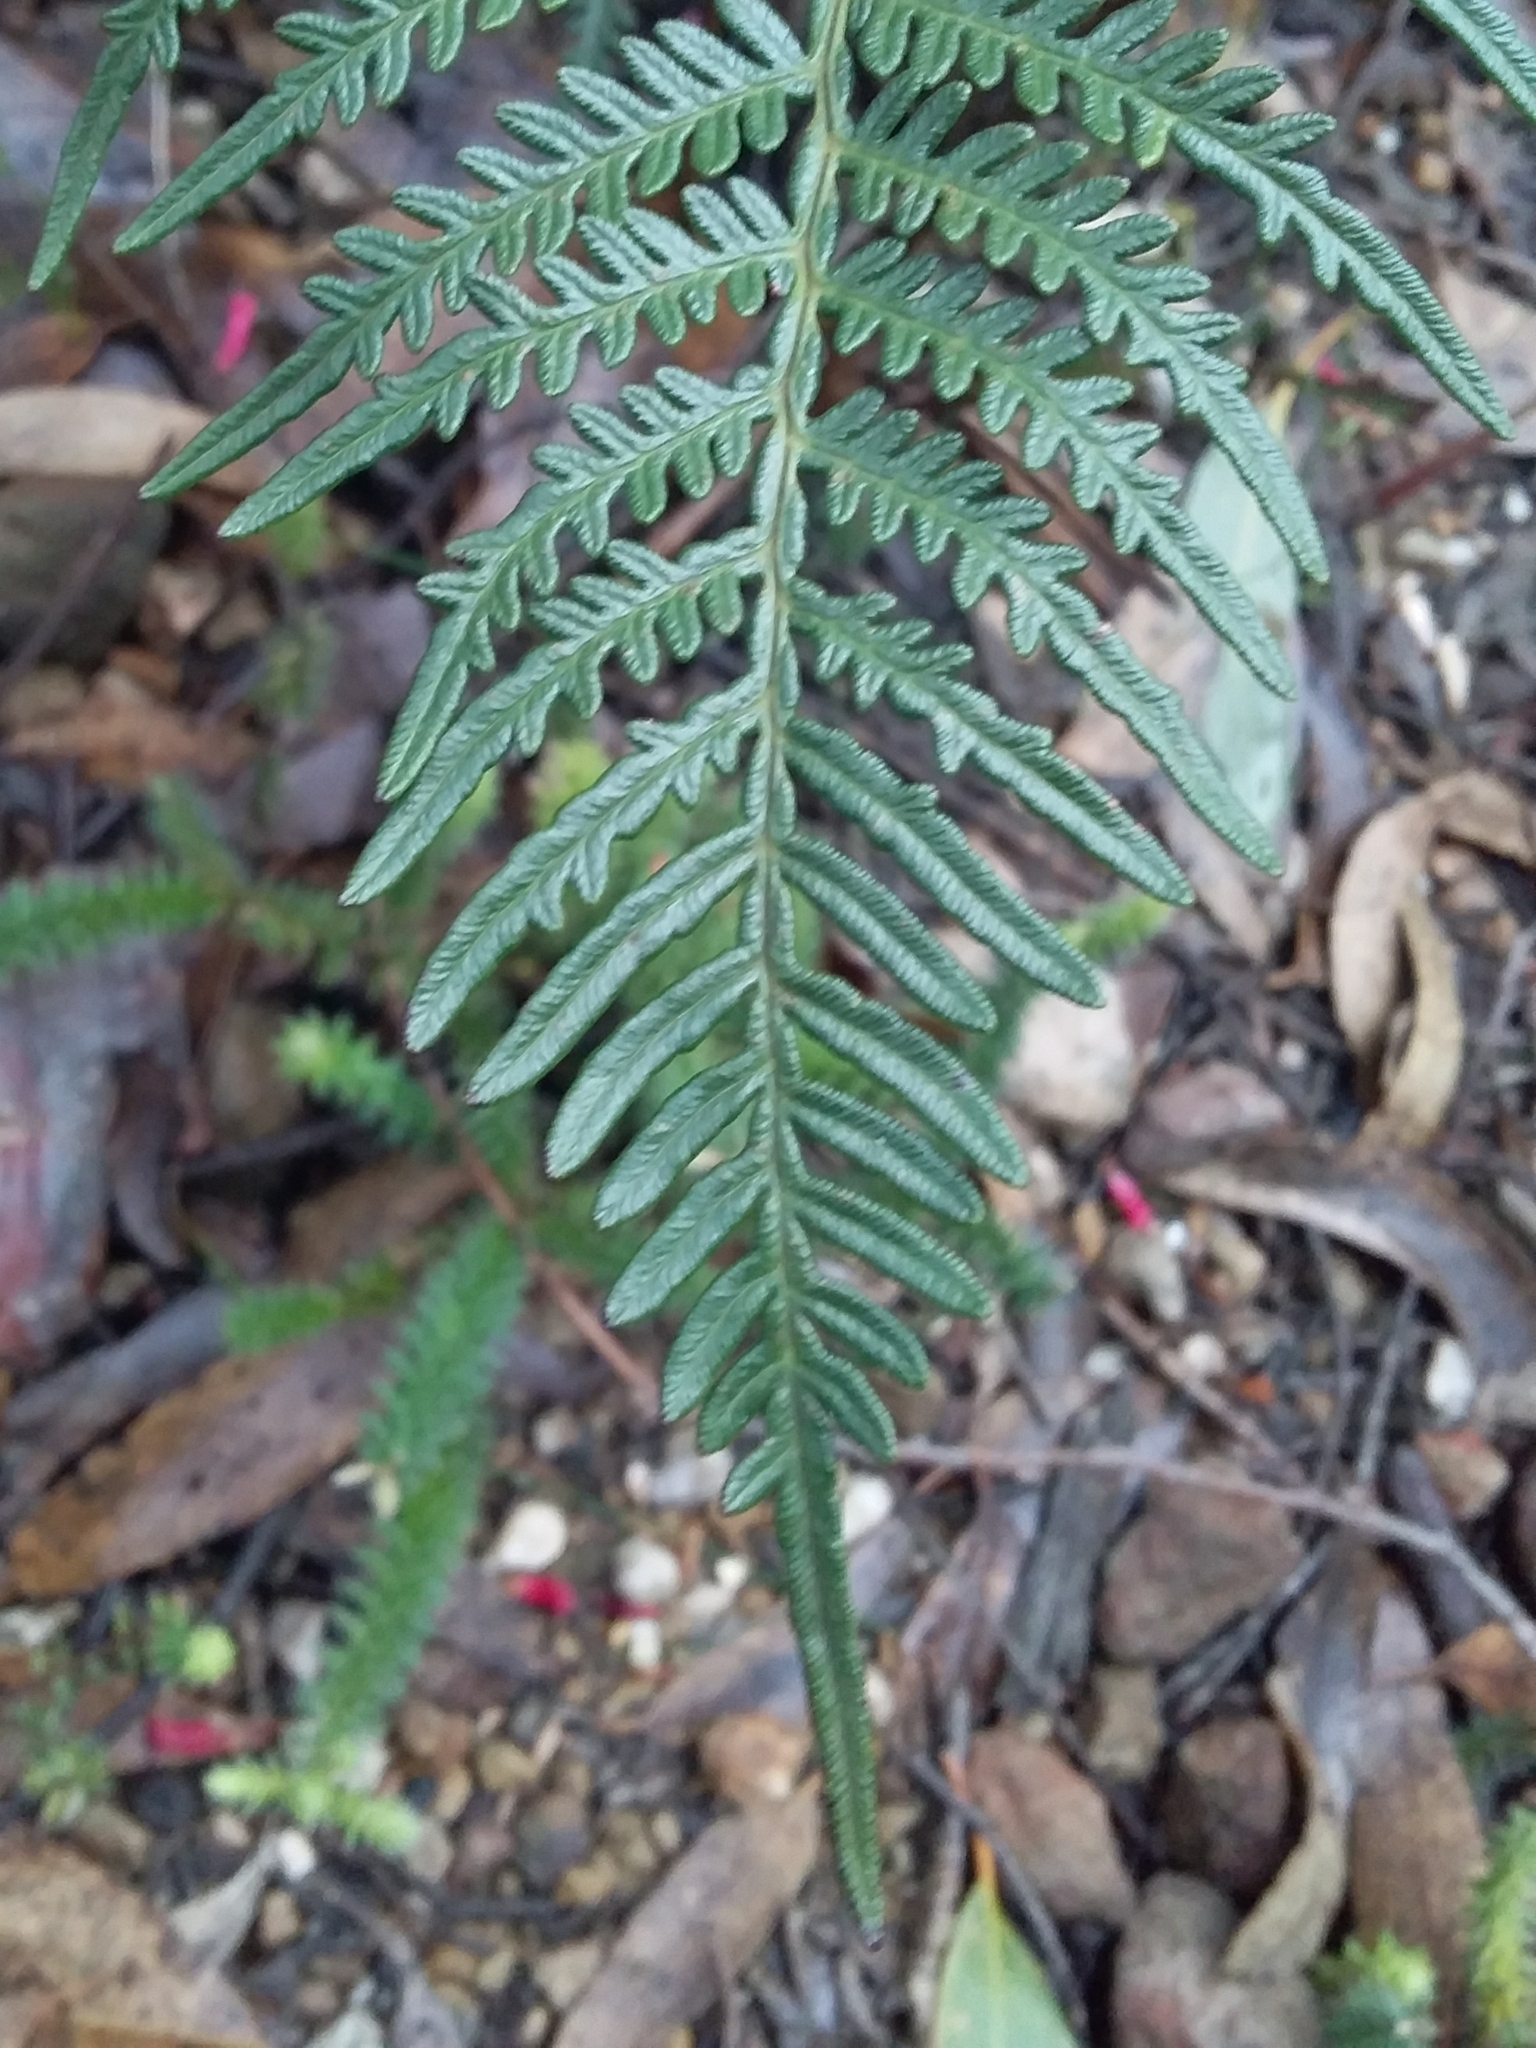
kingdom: Plantae
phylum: Tracheophyta
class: Polypodiopsida
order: Polypodiales
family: Dennstaedtiaceae
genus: Pteridium
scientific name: Pteridium esculentum
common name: Bracken fern
